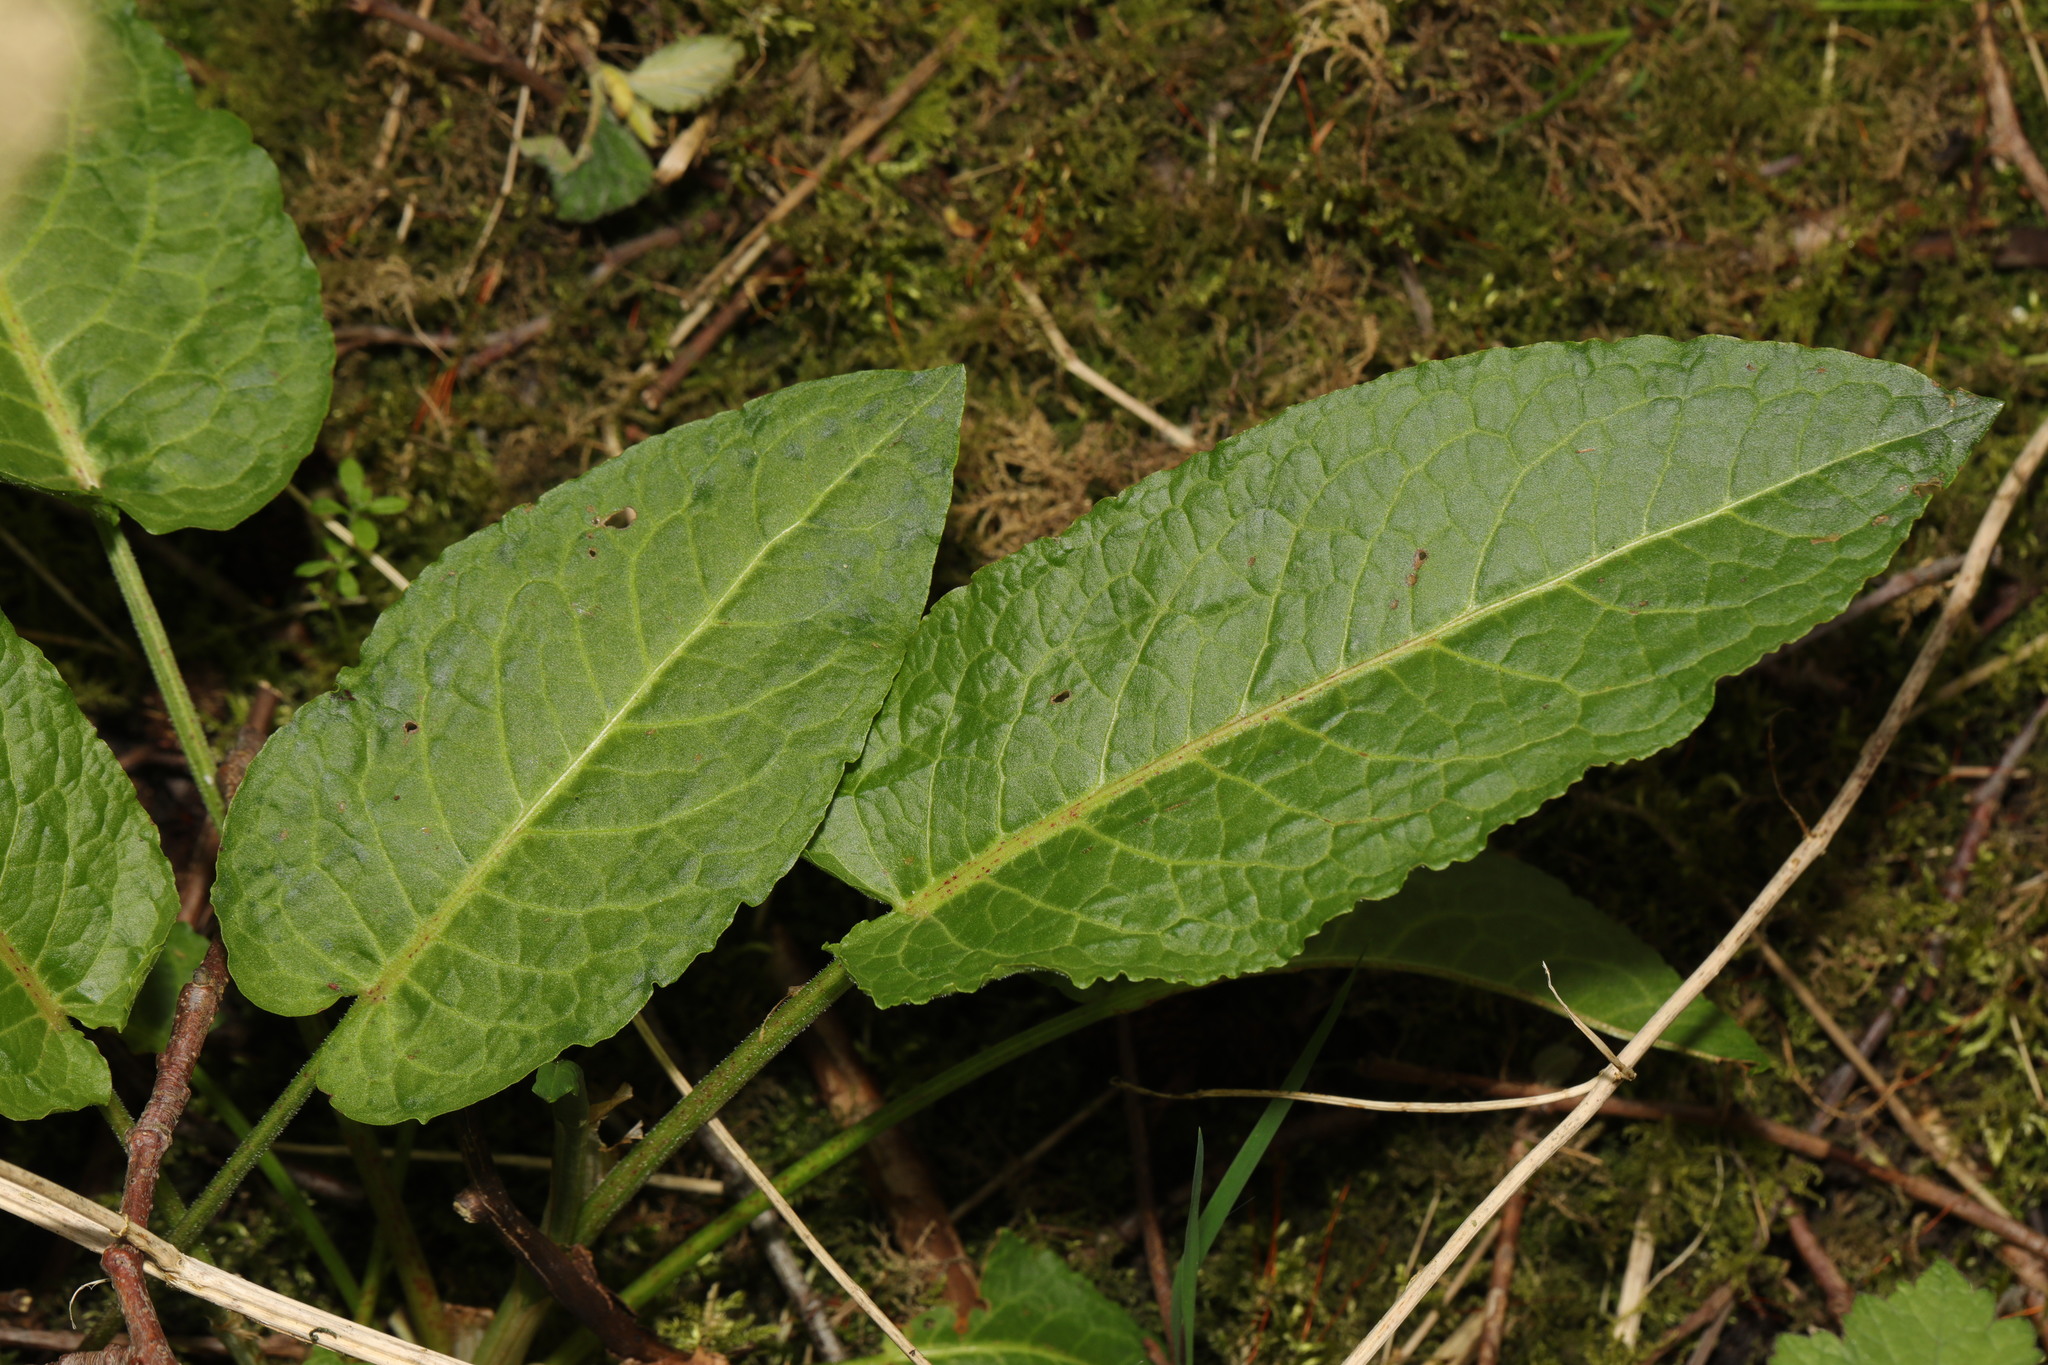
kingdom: Plantae
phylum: Tracheophyta
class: Magnoliopsida
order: Caryophyllales
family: Polygonaceae
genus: Rumex
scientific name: Rumex obtusifolius
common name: Bitter dock
